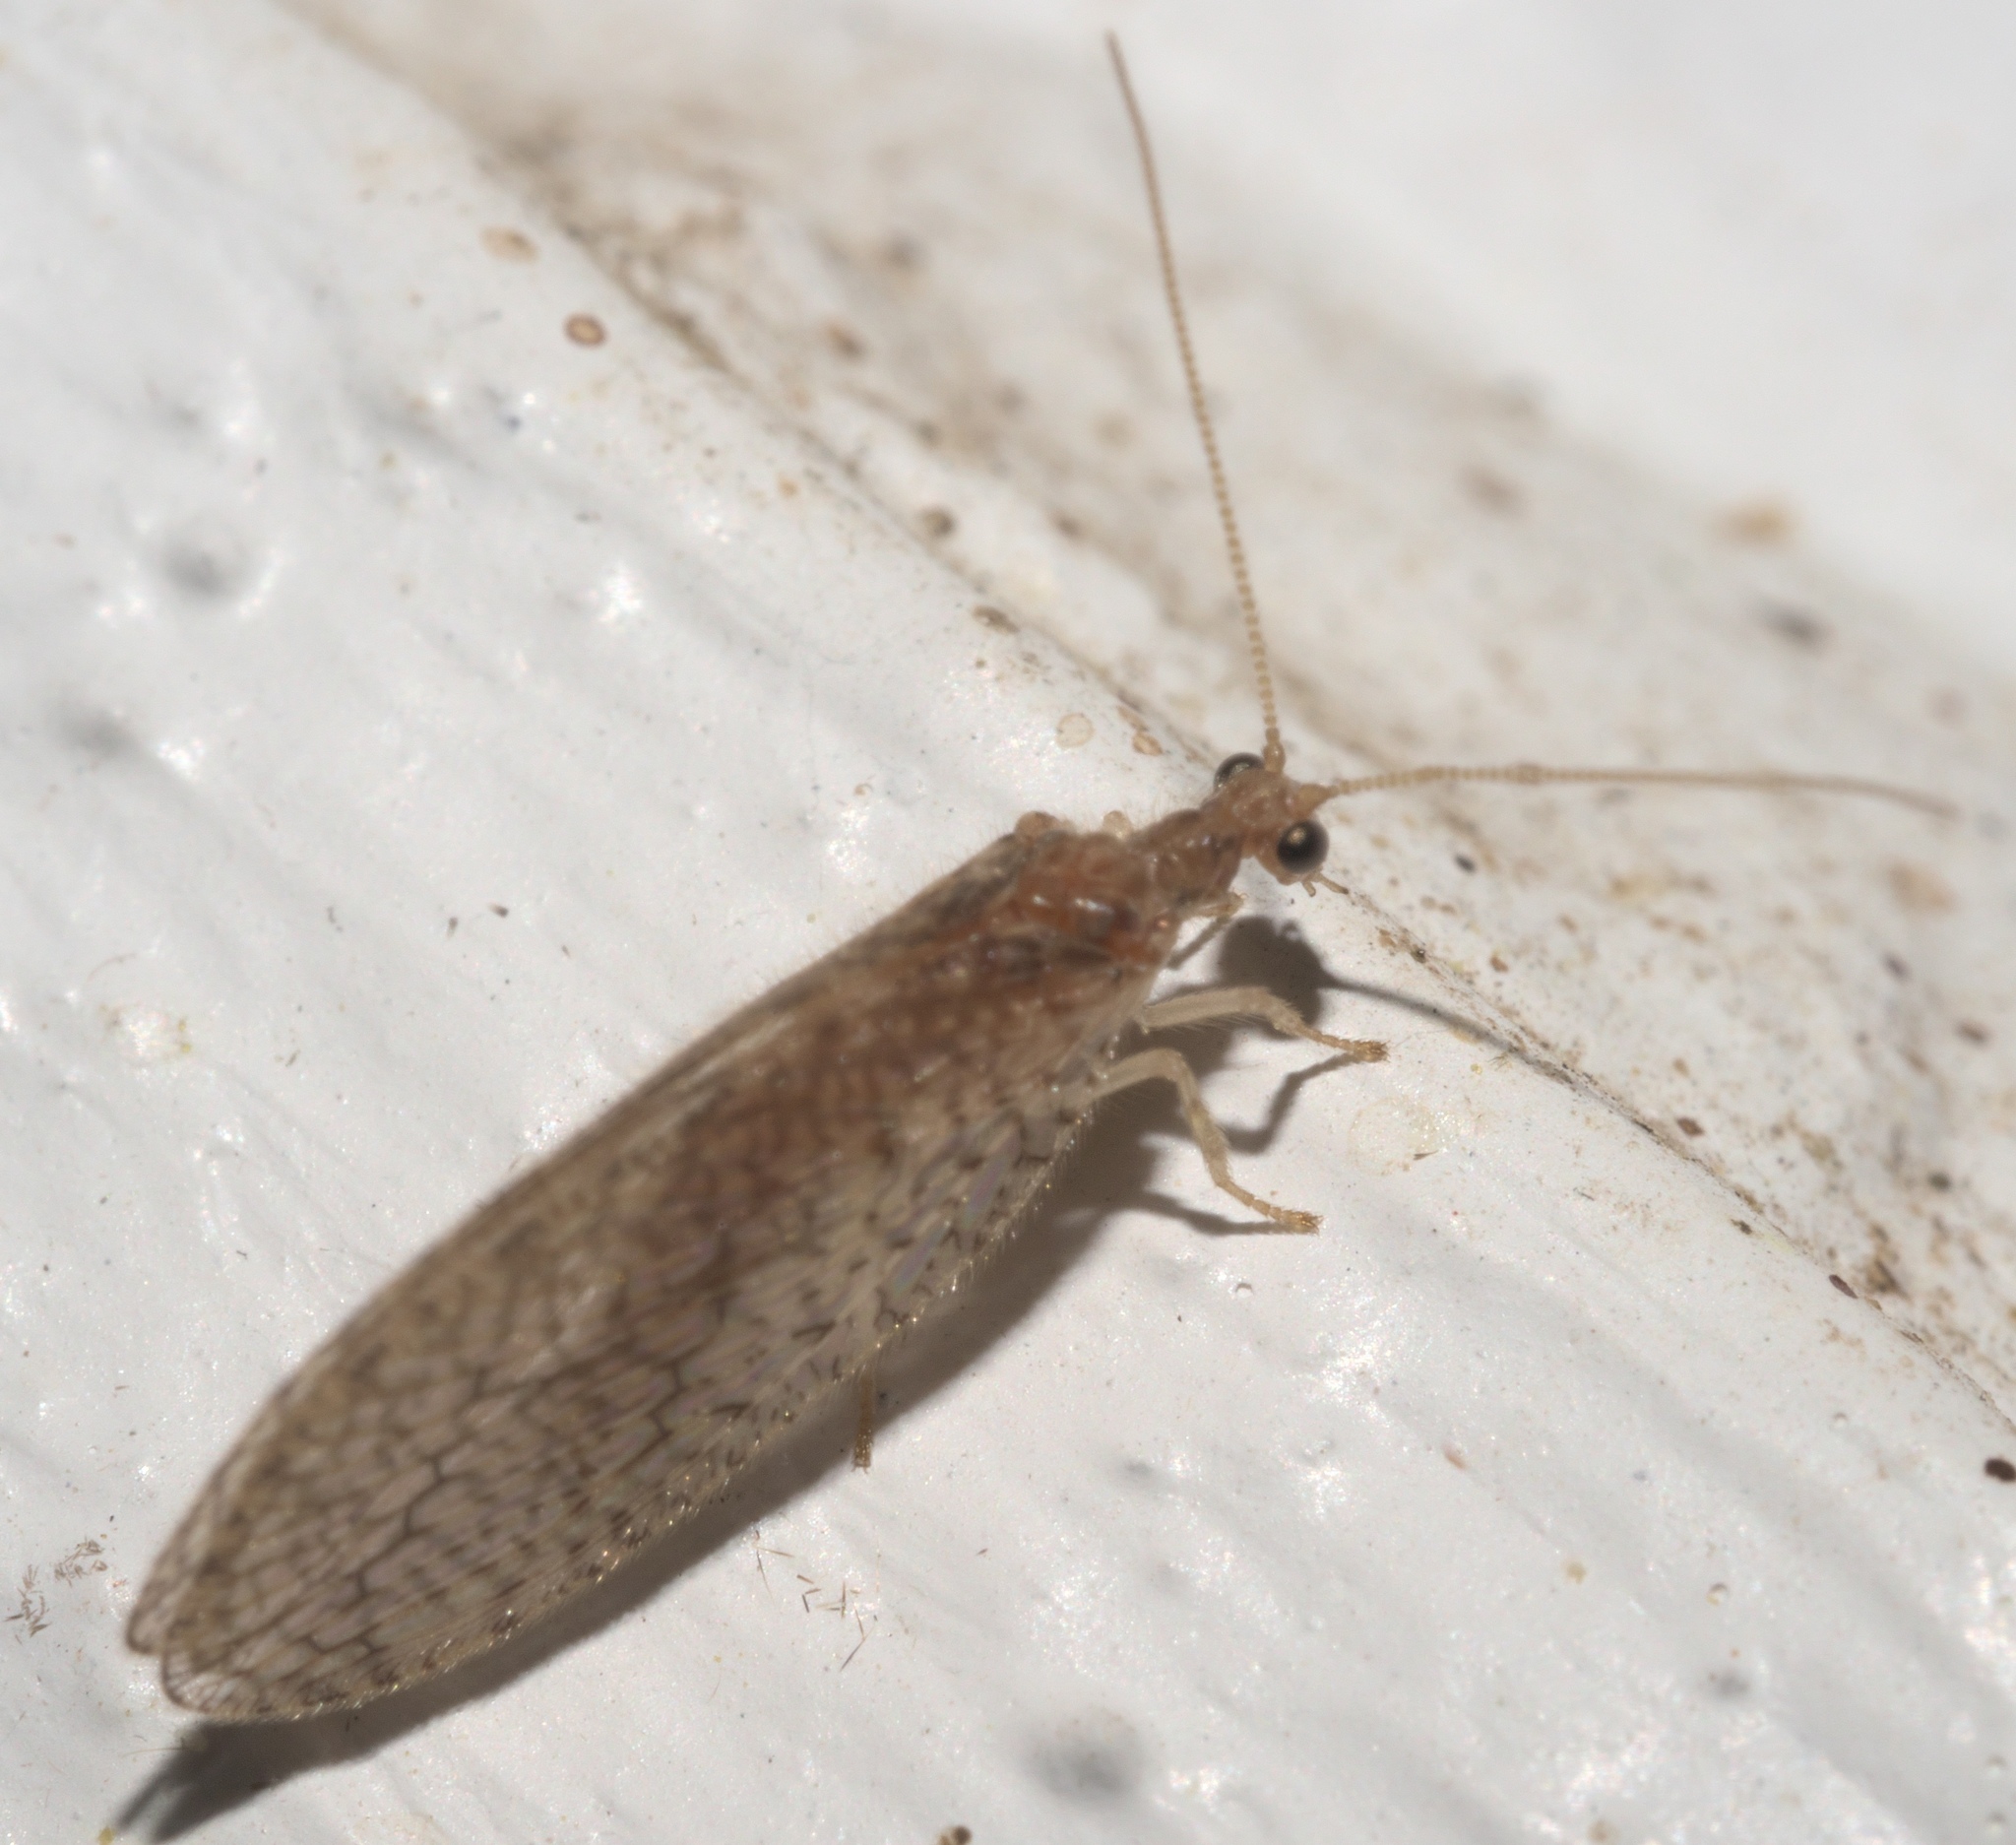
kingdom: Animalia
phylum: Arthropoda
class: Insecta
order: Neuroptera
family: Hemerobiidae
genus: Micromus
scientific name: Micromus posticus
